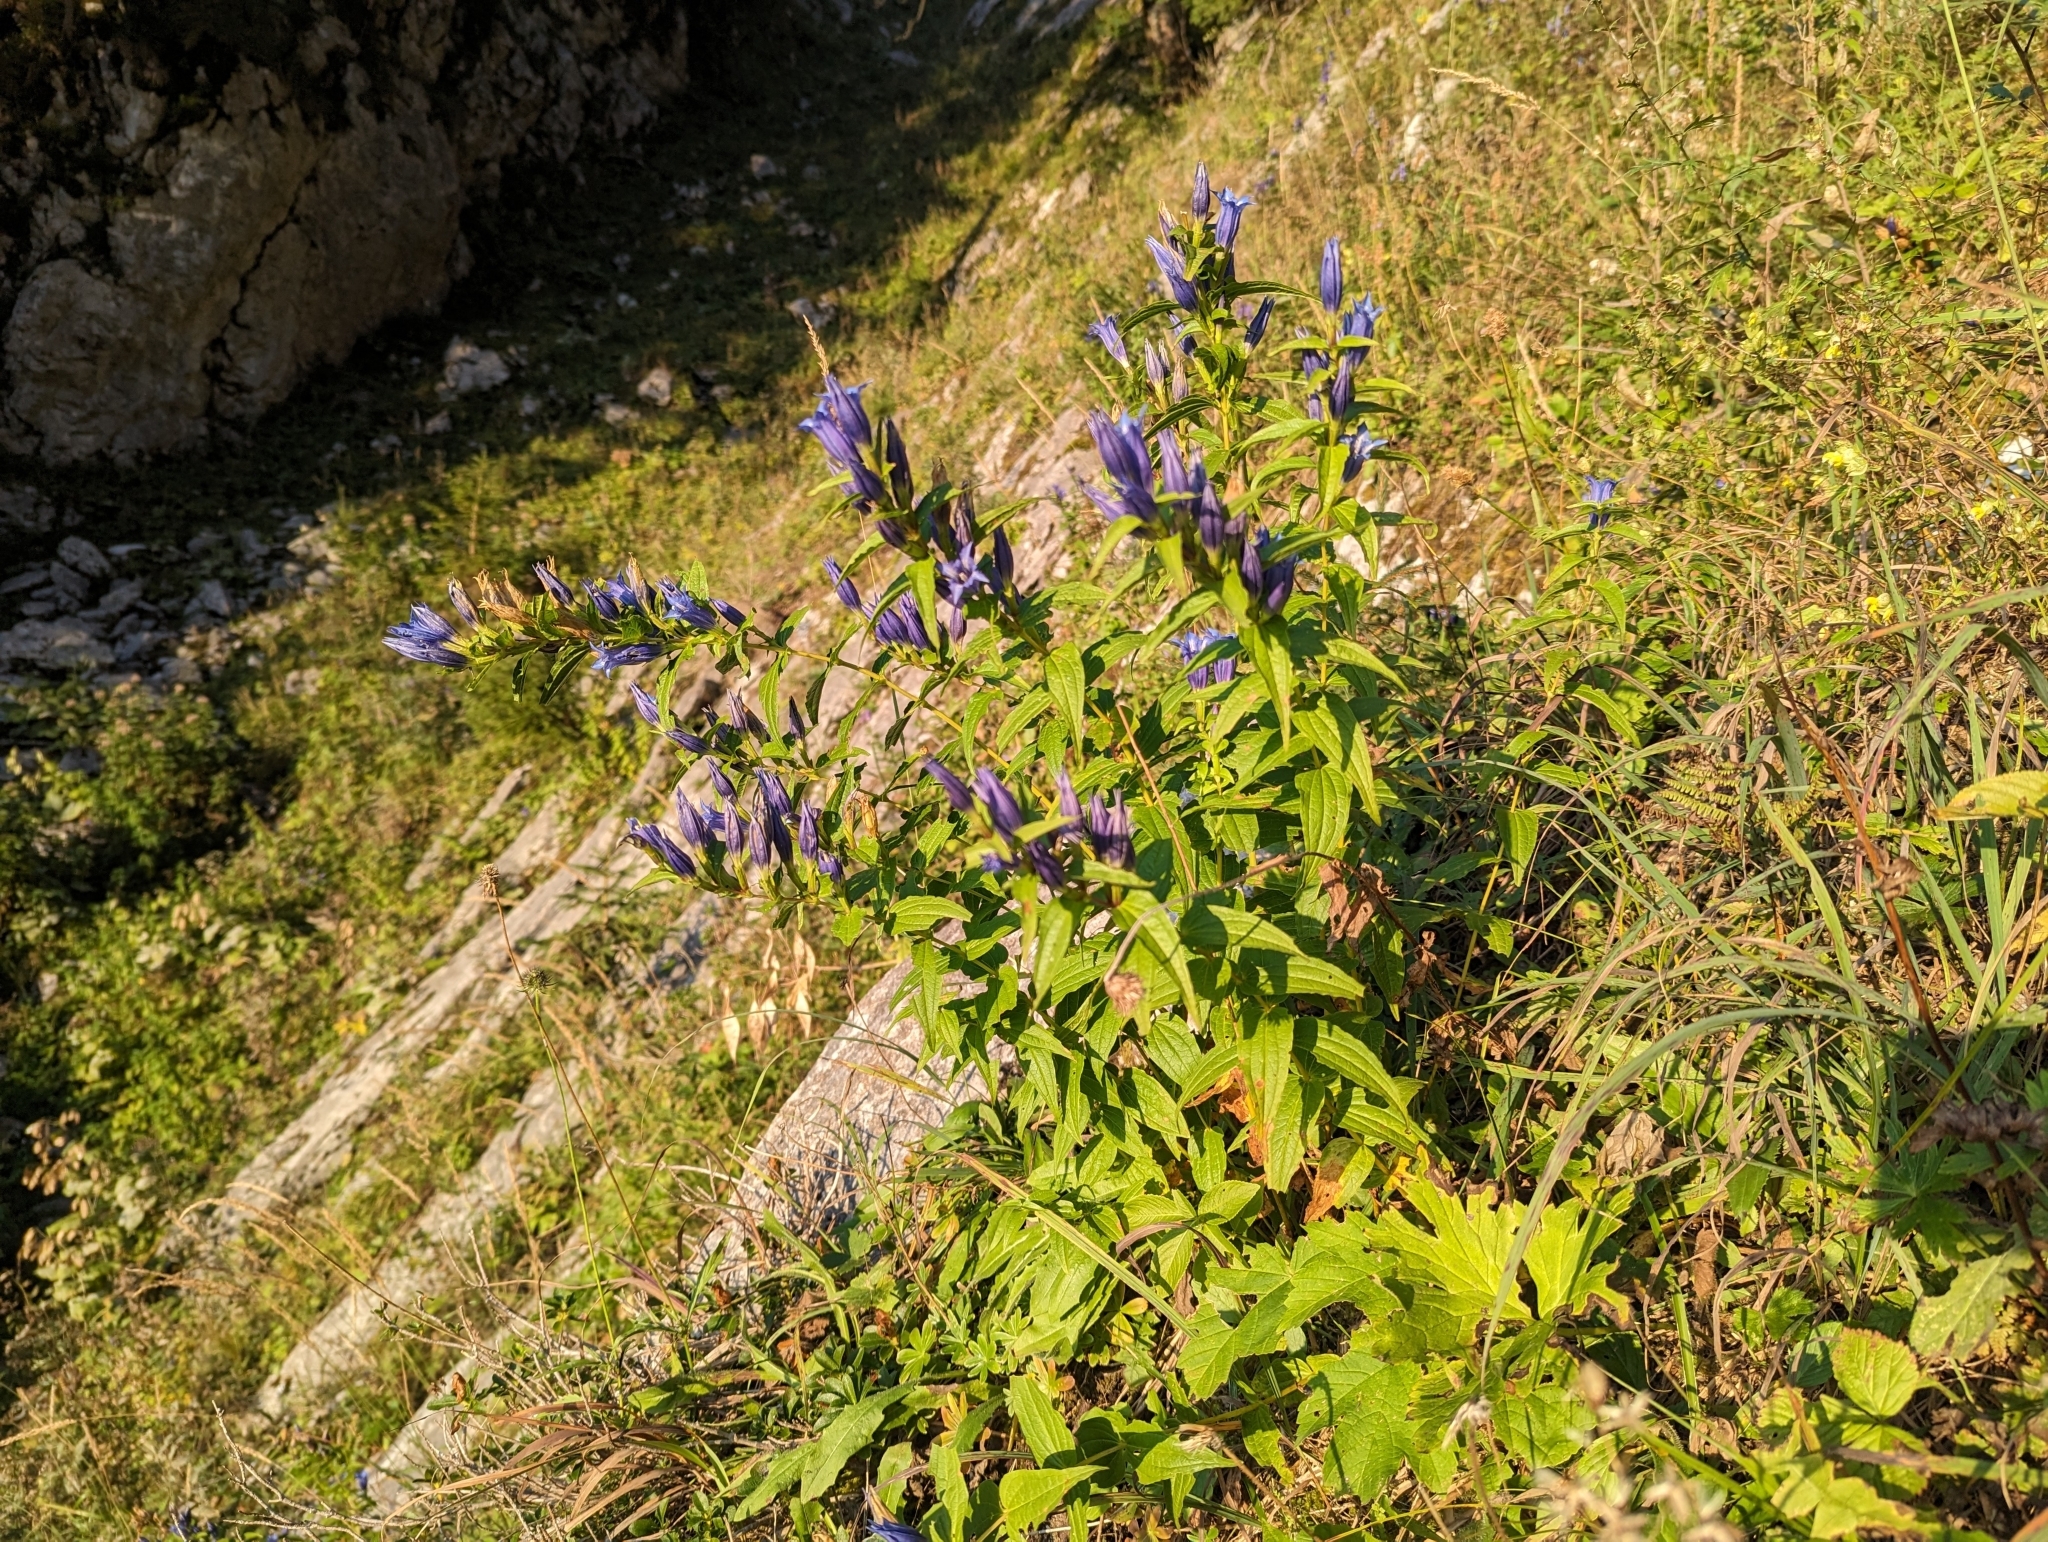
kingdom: Plantae
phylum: Tracheophyta
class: Magnoliopsida
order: Gentianales
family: Gentianaceae
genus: Gentiana
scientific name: Gentiana asclepiadea
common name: Willow gentian
